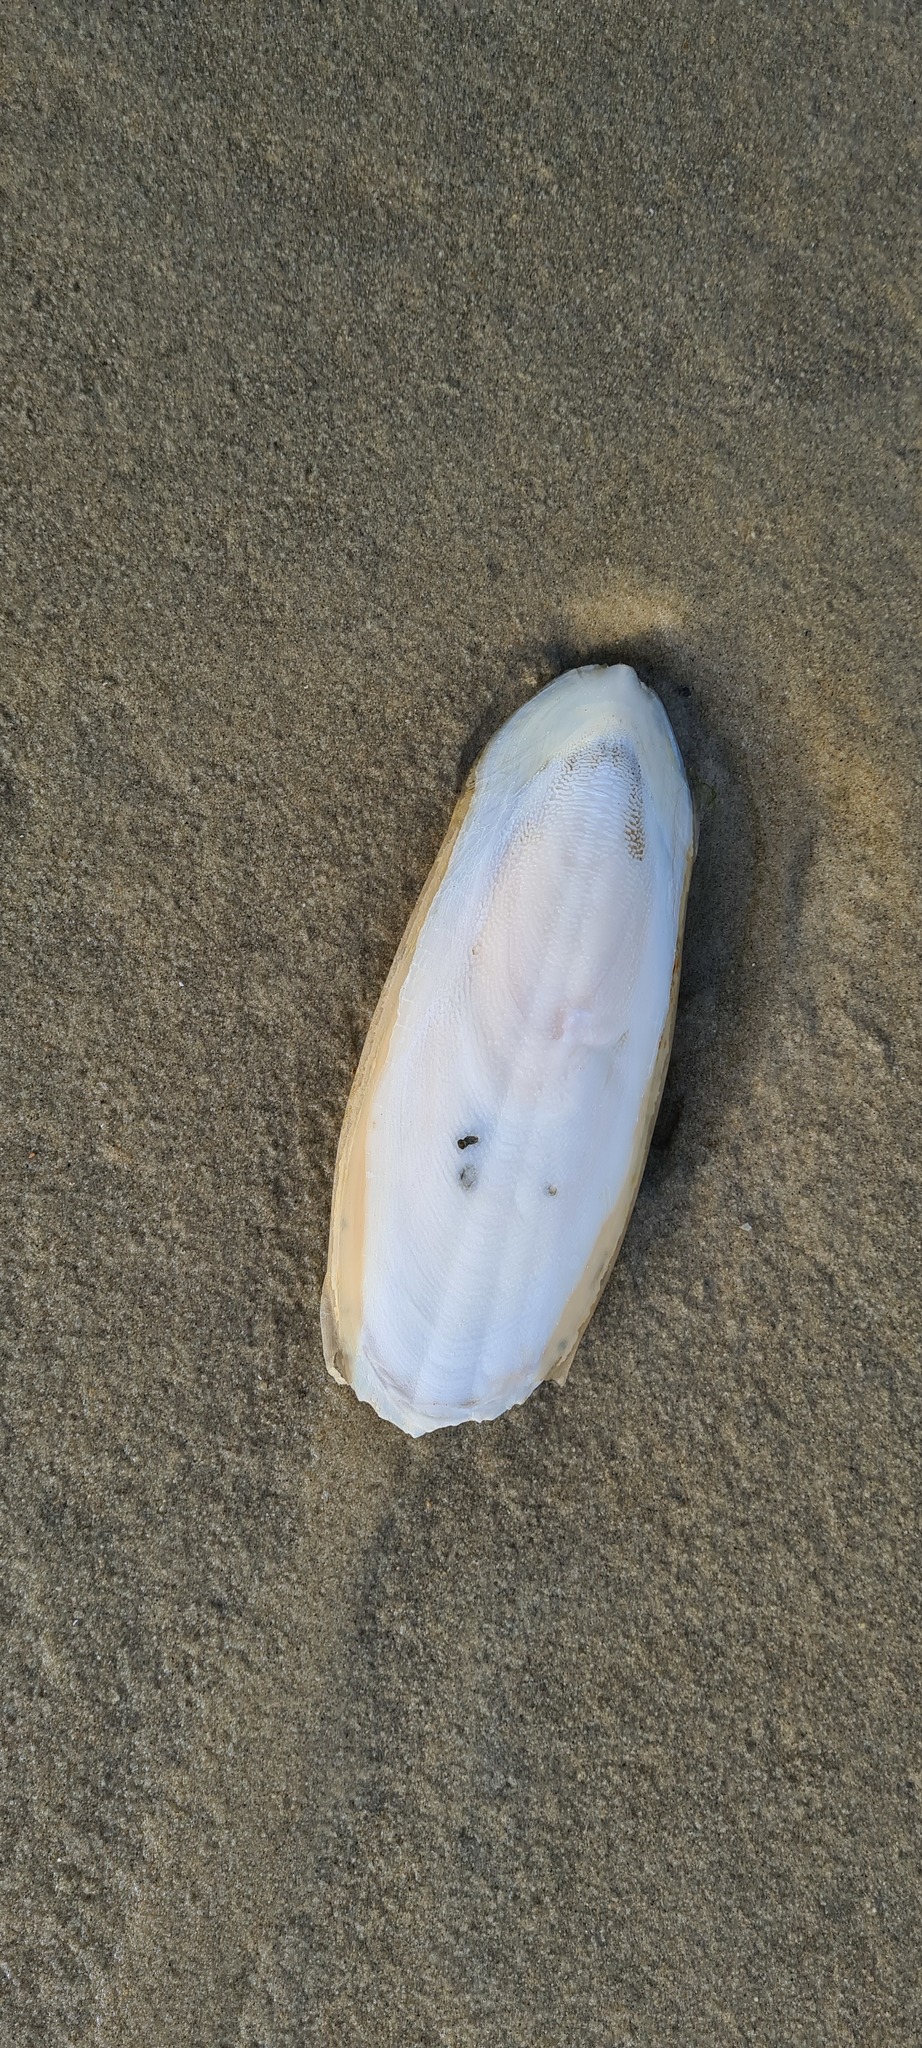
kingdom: Animalia
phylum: Mollusca
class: Cephalopoda
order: Sepiida
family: Sepiidae
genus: Sepia
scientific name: Sepia officinalis
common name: Common cuttlefish
